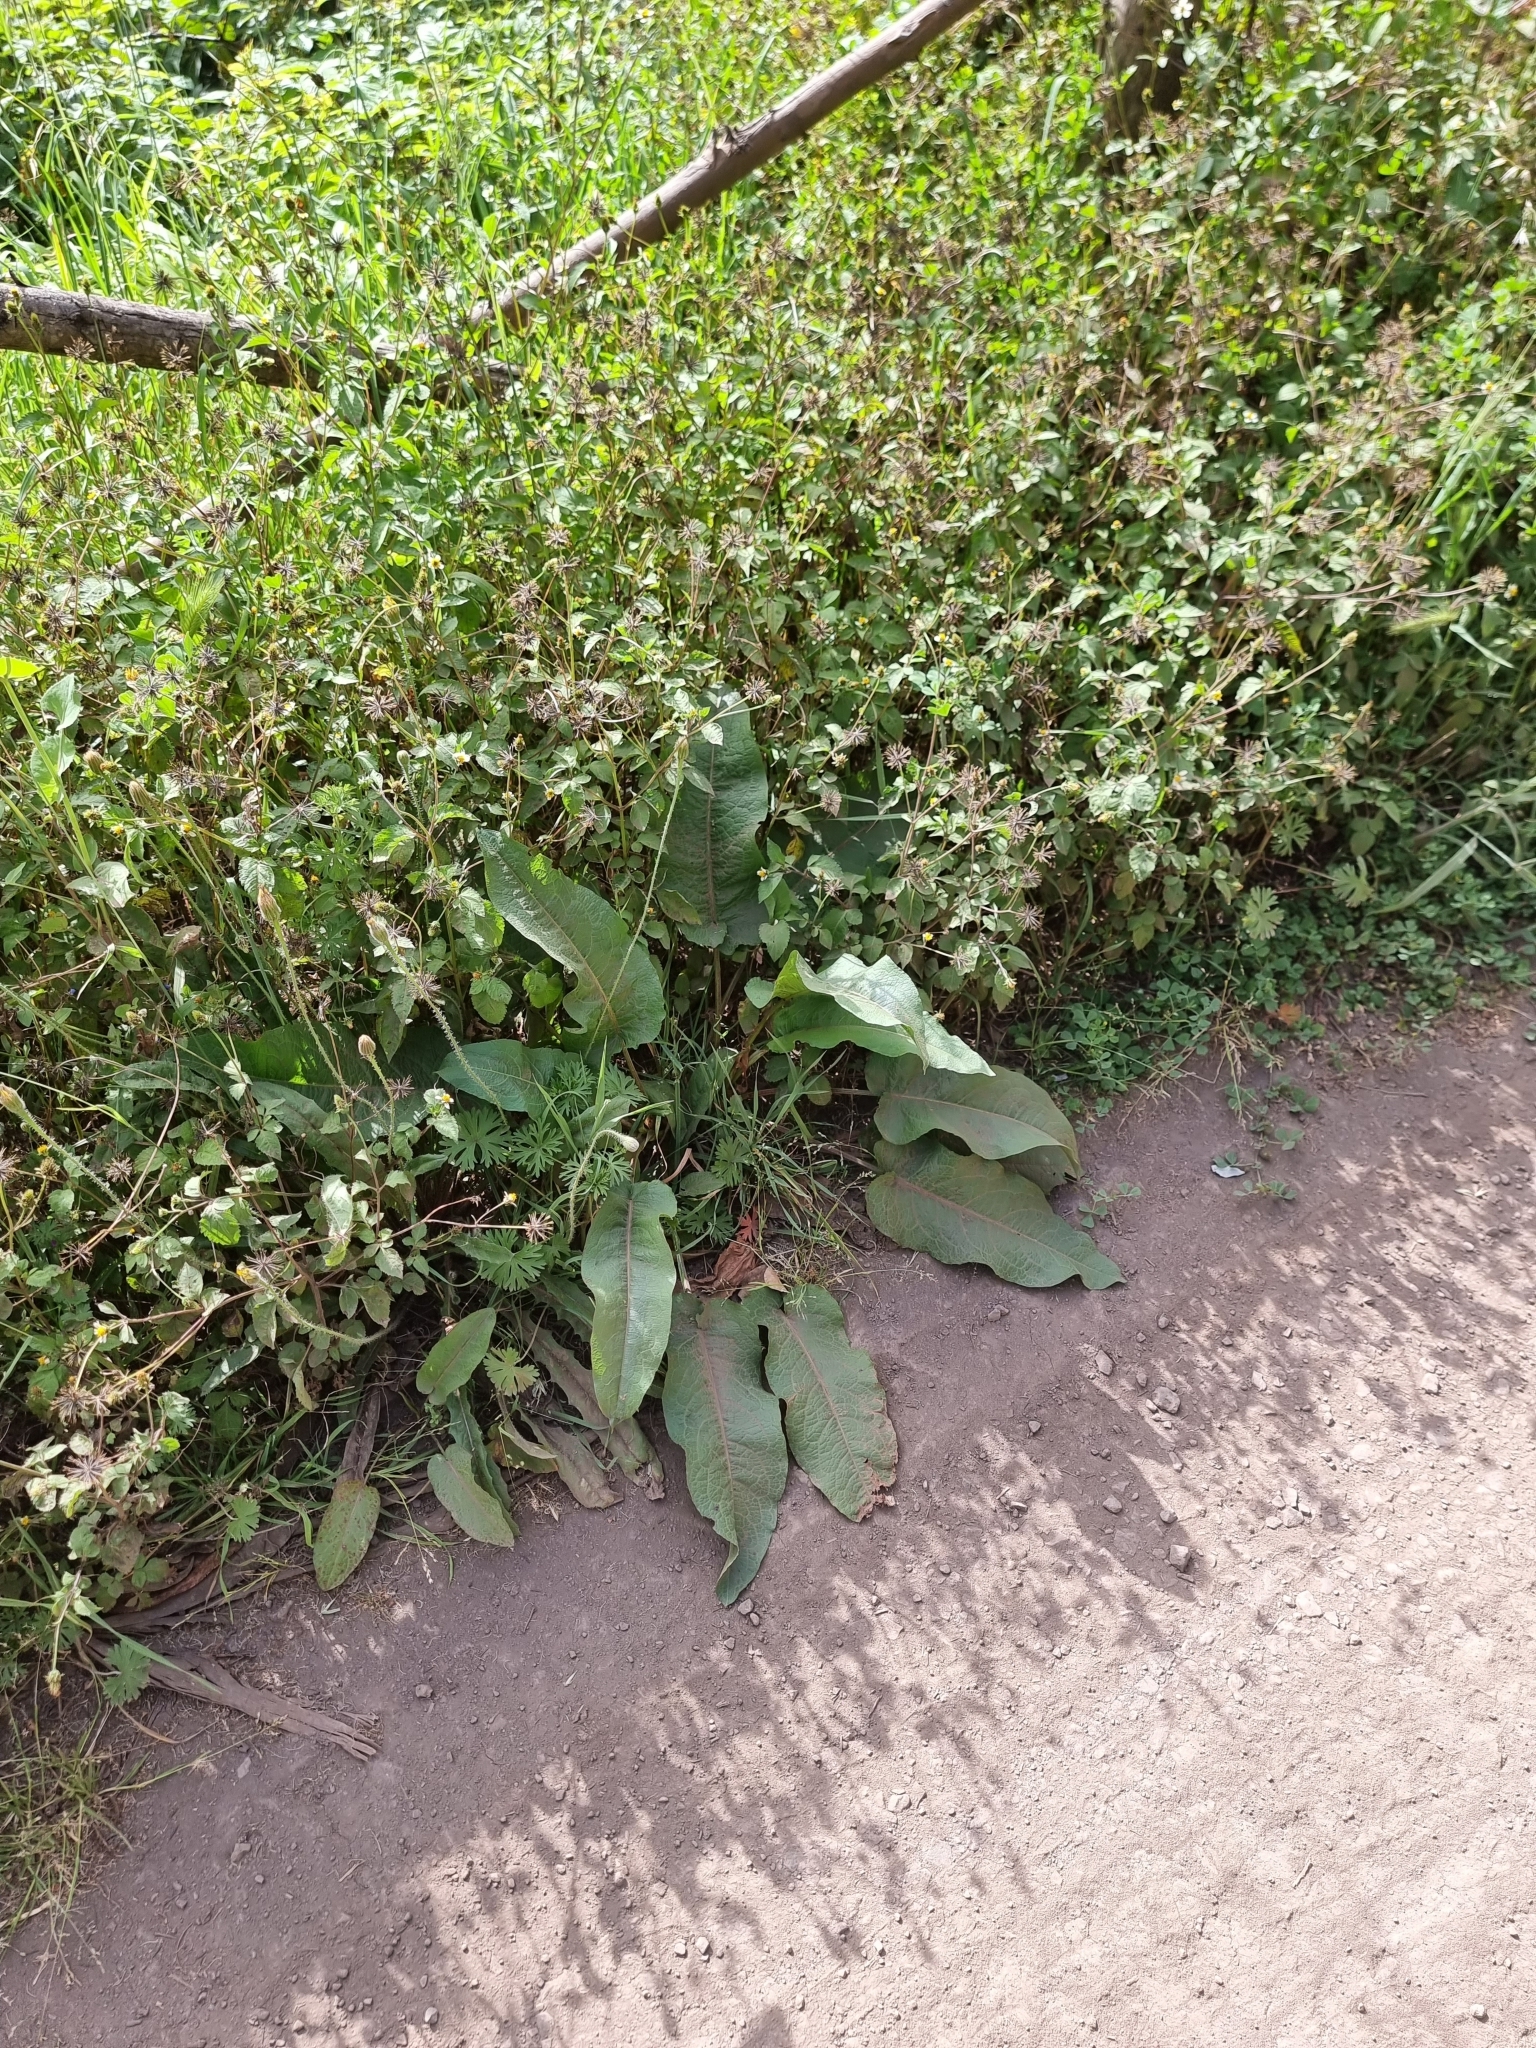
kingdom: Plantae
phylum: Tracheophyta
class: Magnoliopsida
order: Caryophyllales
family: Polygonaceae
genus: Rumex
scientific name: Rumex obtusifolius
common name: Bitter dock
